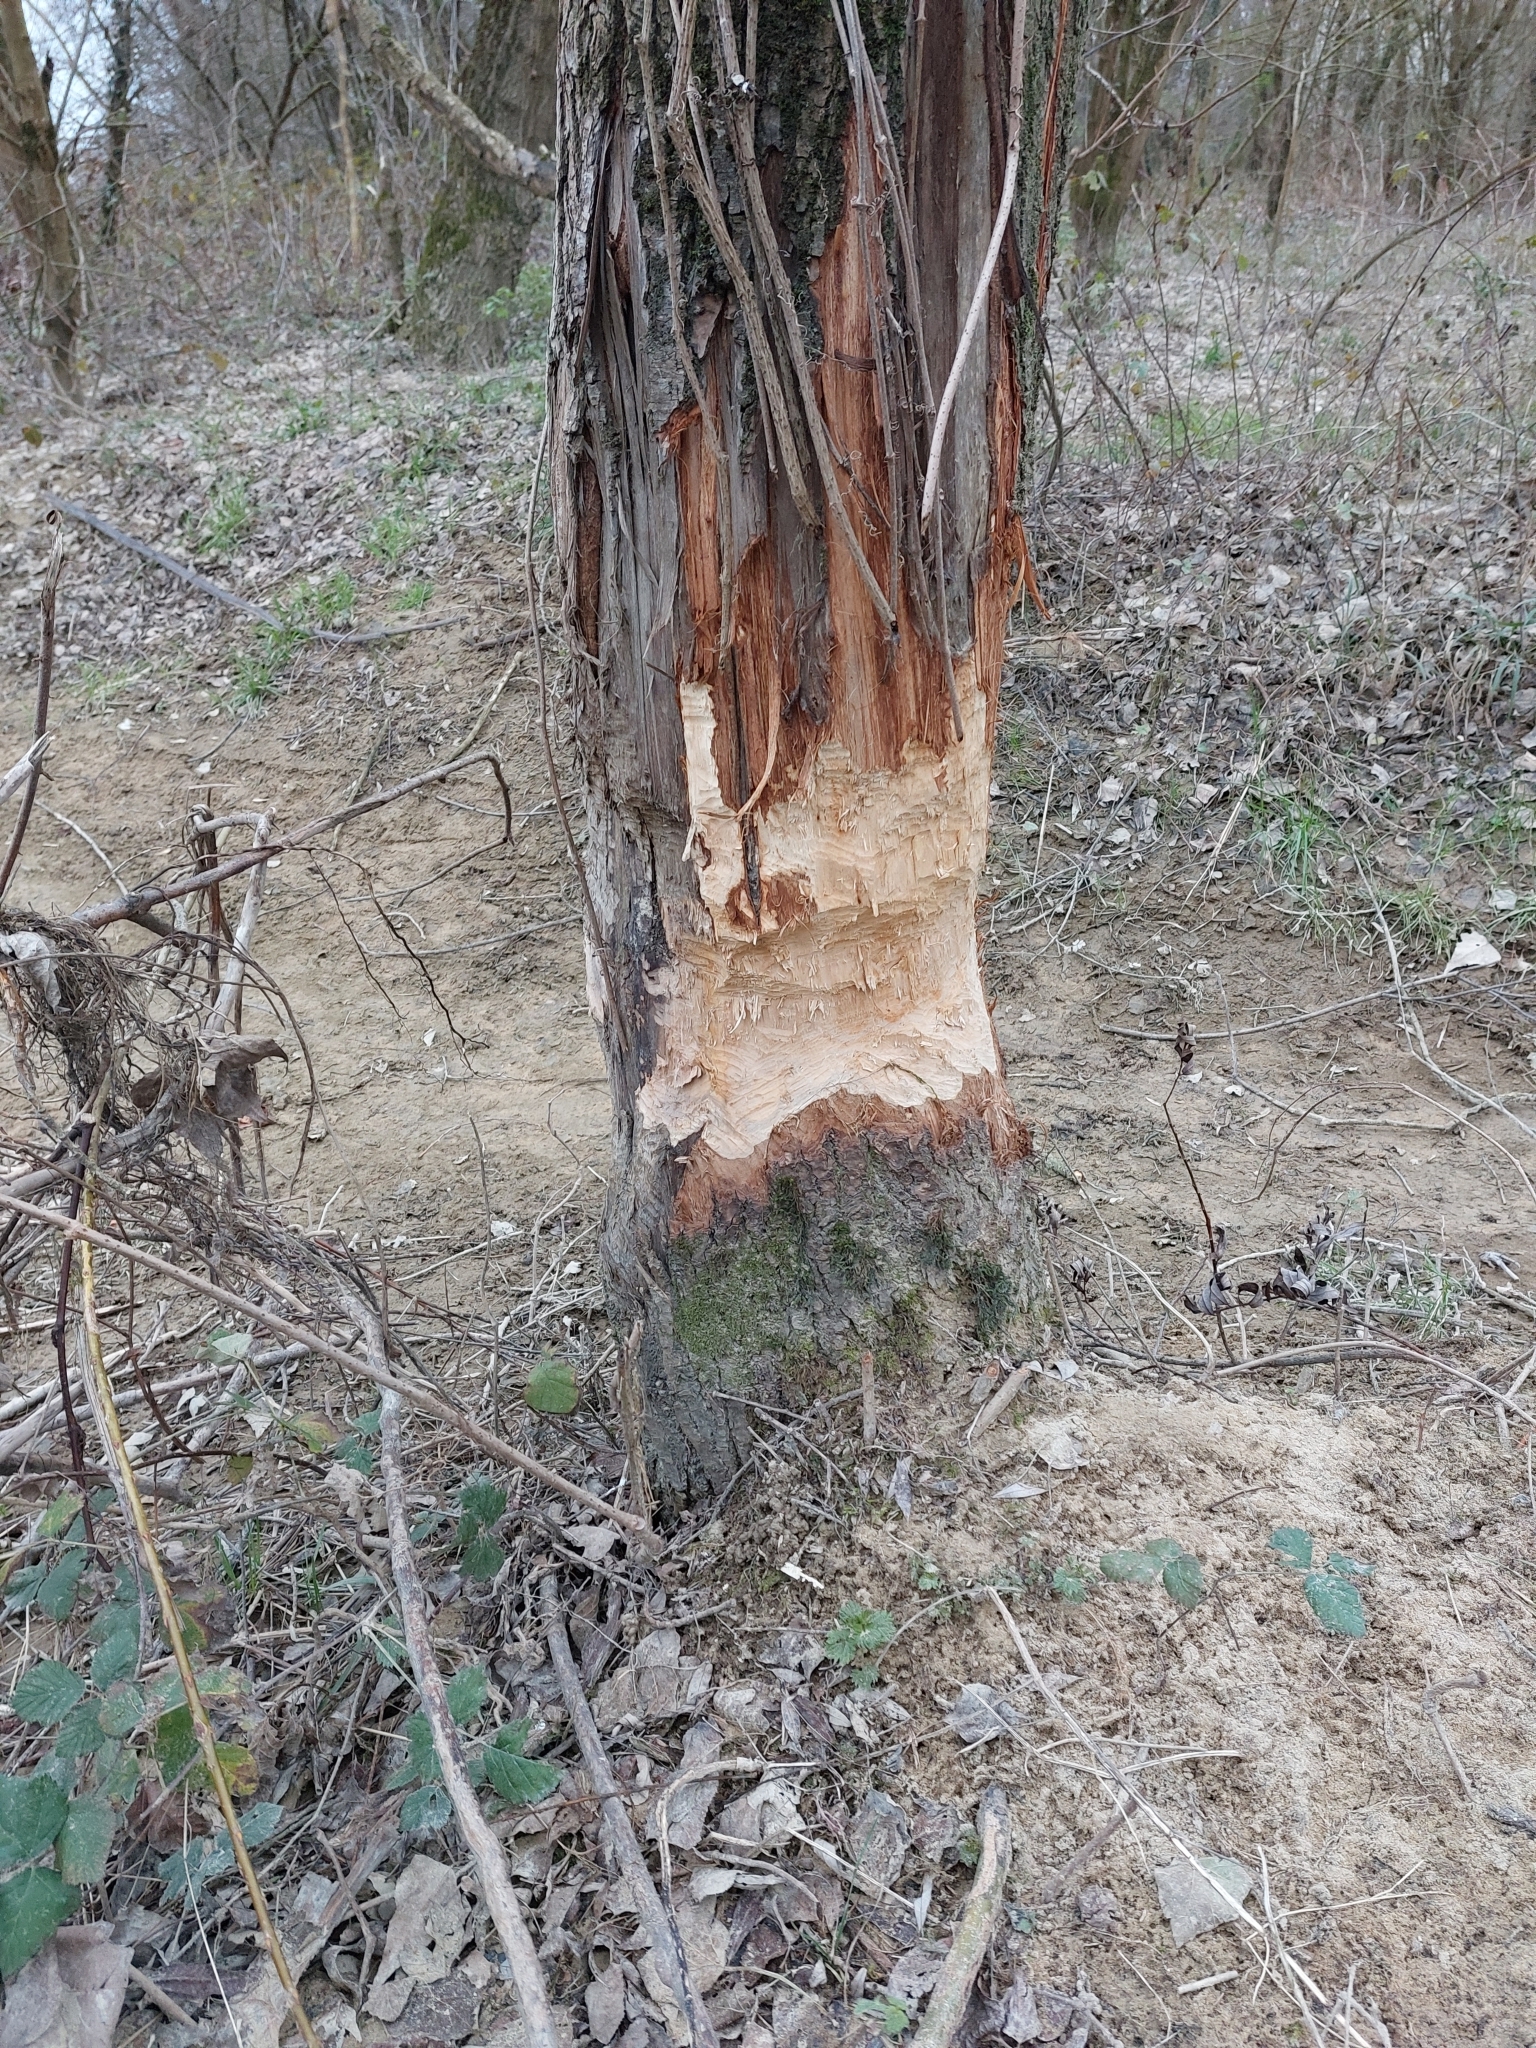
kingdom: Animalia
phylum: Chordata
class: Mammalia
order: Rodentia
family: Castoridae
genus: Castor
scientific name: Castor fiber
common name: Eurasian beaver
